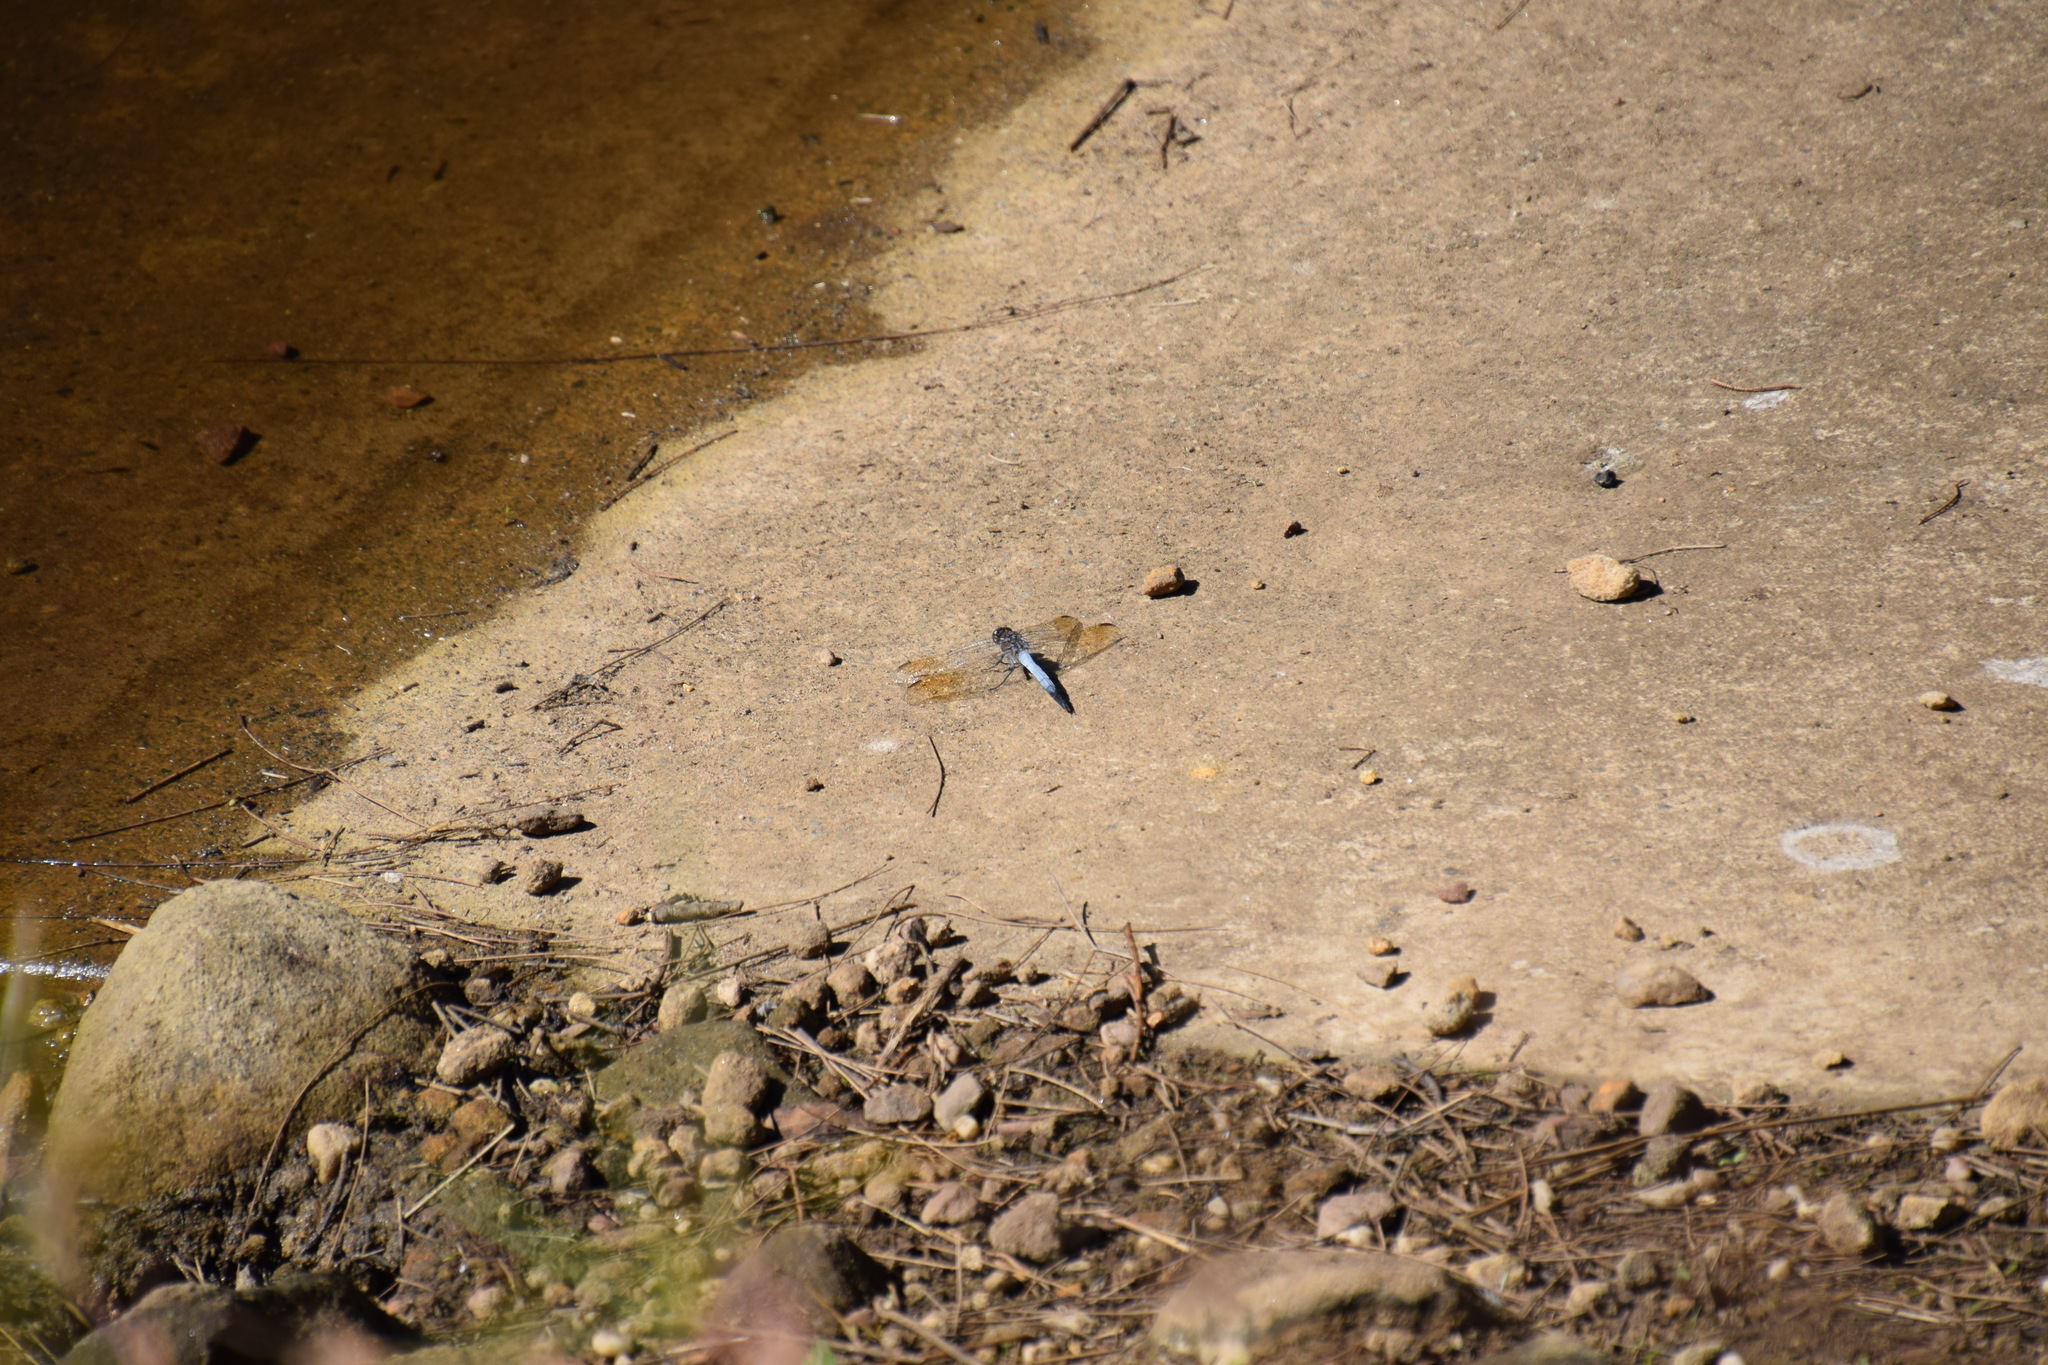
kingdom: Animalia
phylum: Arthropoda
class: Insecta
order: Odonata
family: Libellulidae
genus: Orthetrum
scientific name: Orthetrum caledonicum
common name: Blue skimmer
